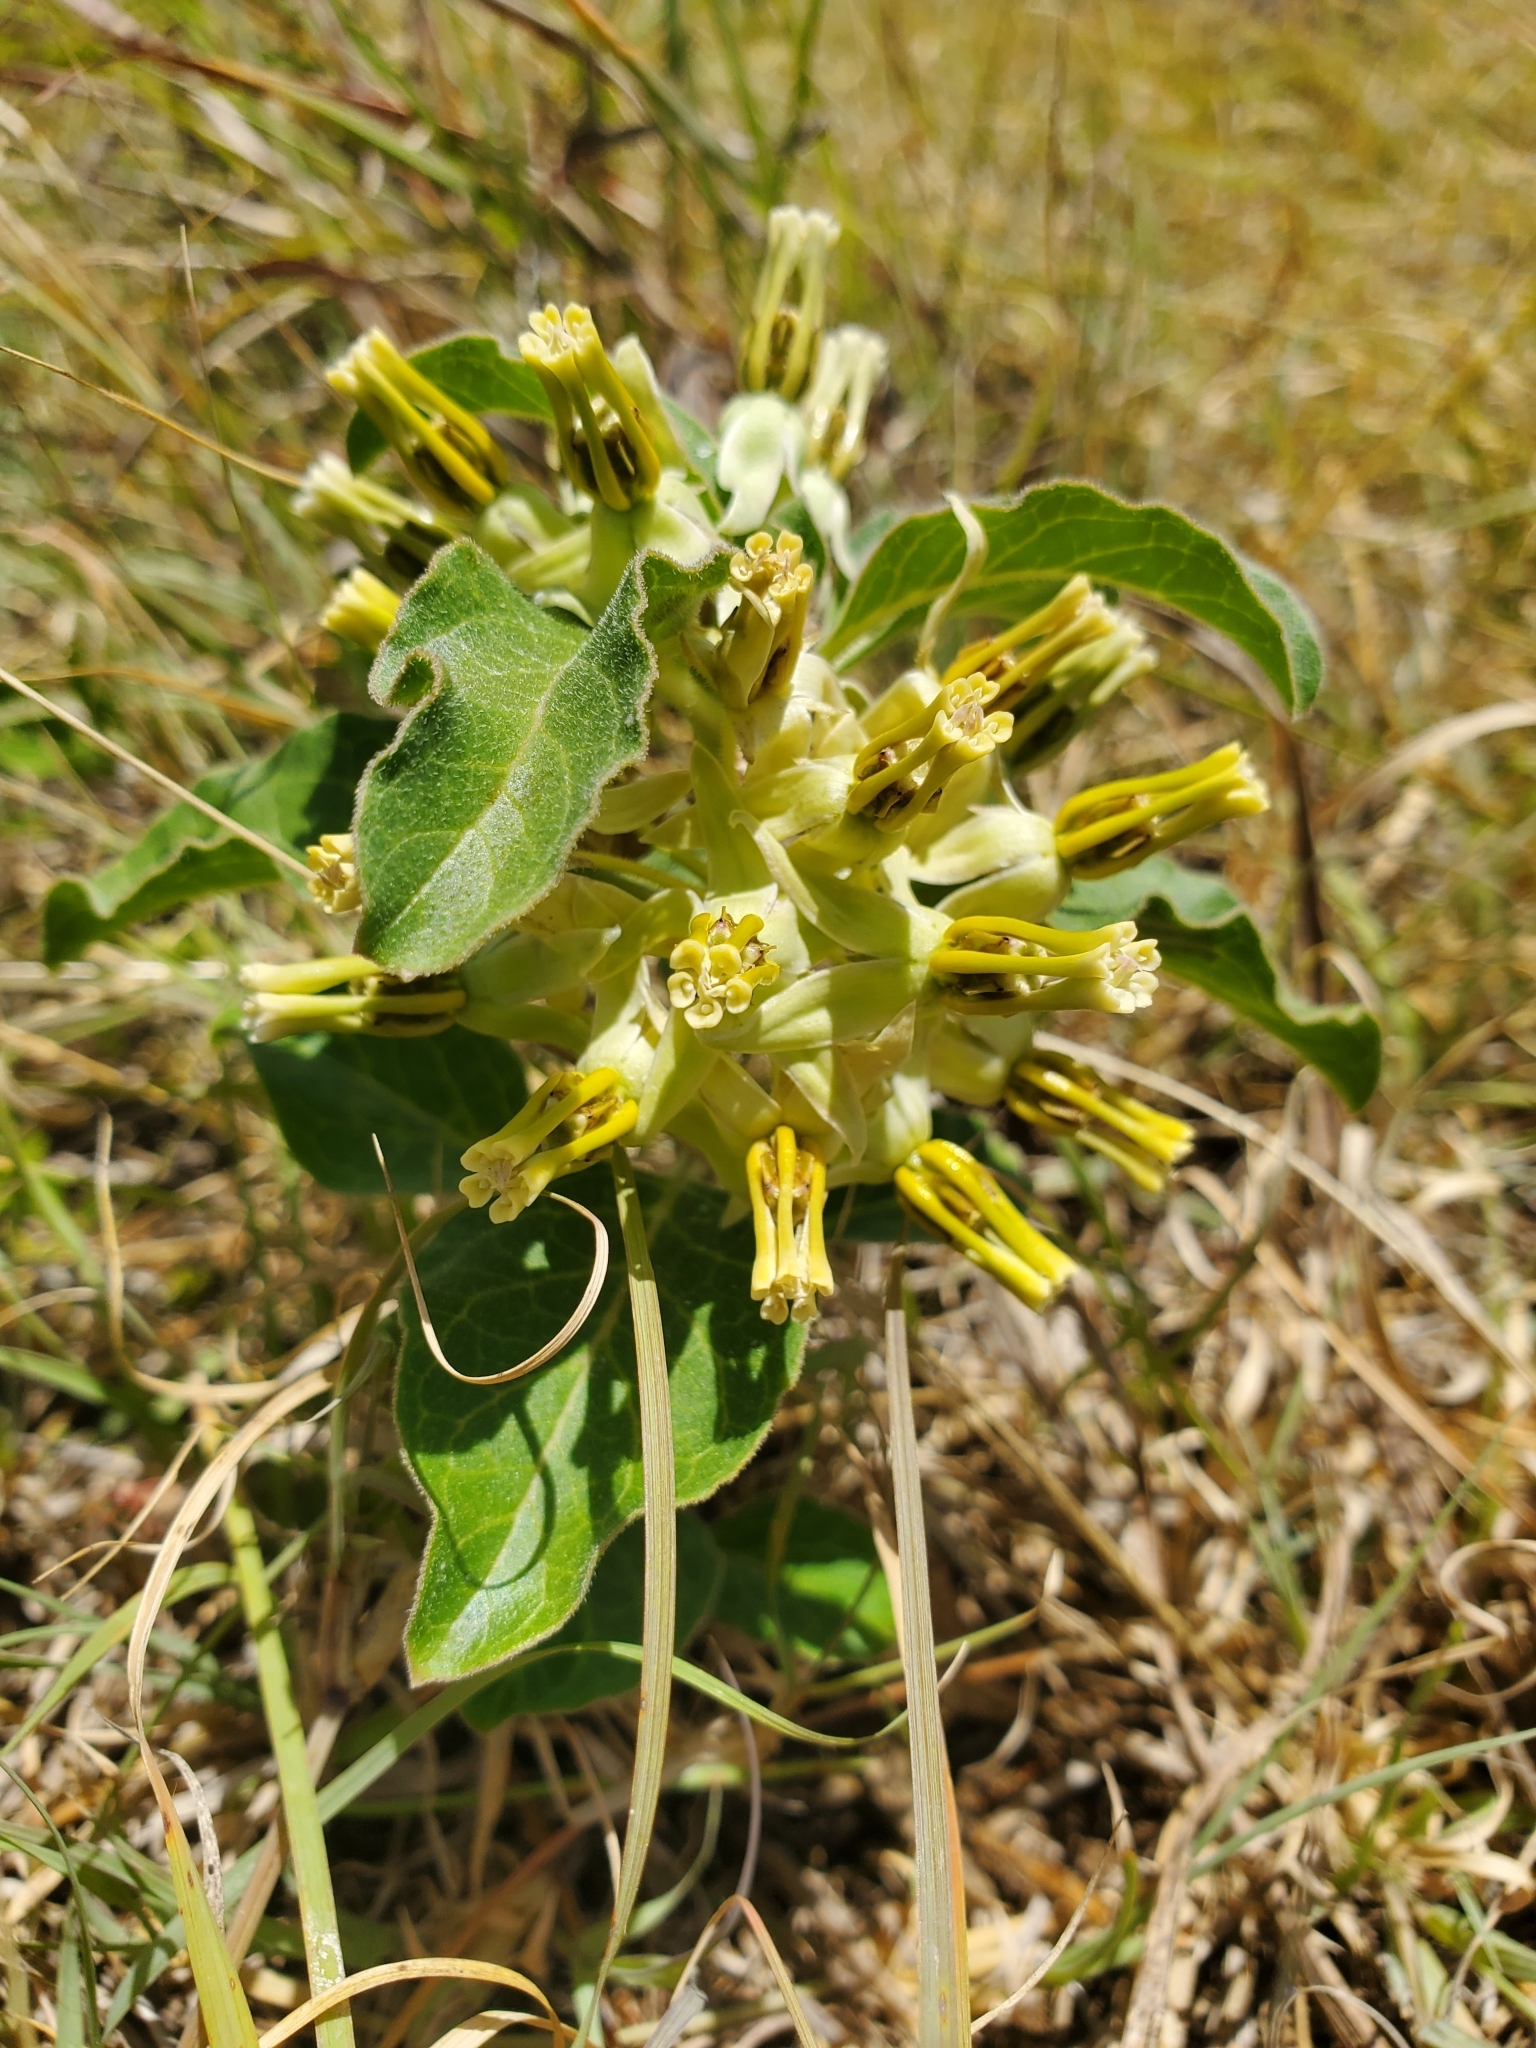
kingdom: Plantae
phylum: Tracheophyta
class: Magnoliopsida
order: Gentianales
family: Apocynaceae
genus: Asclepias
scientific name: Asclepias oenotheroides
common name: Zizotes milkweed
